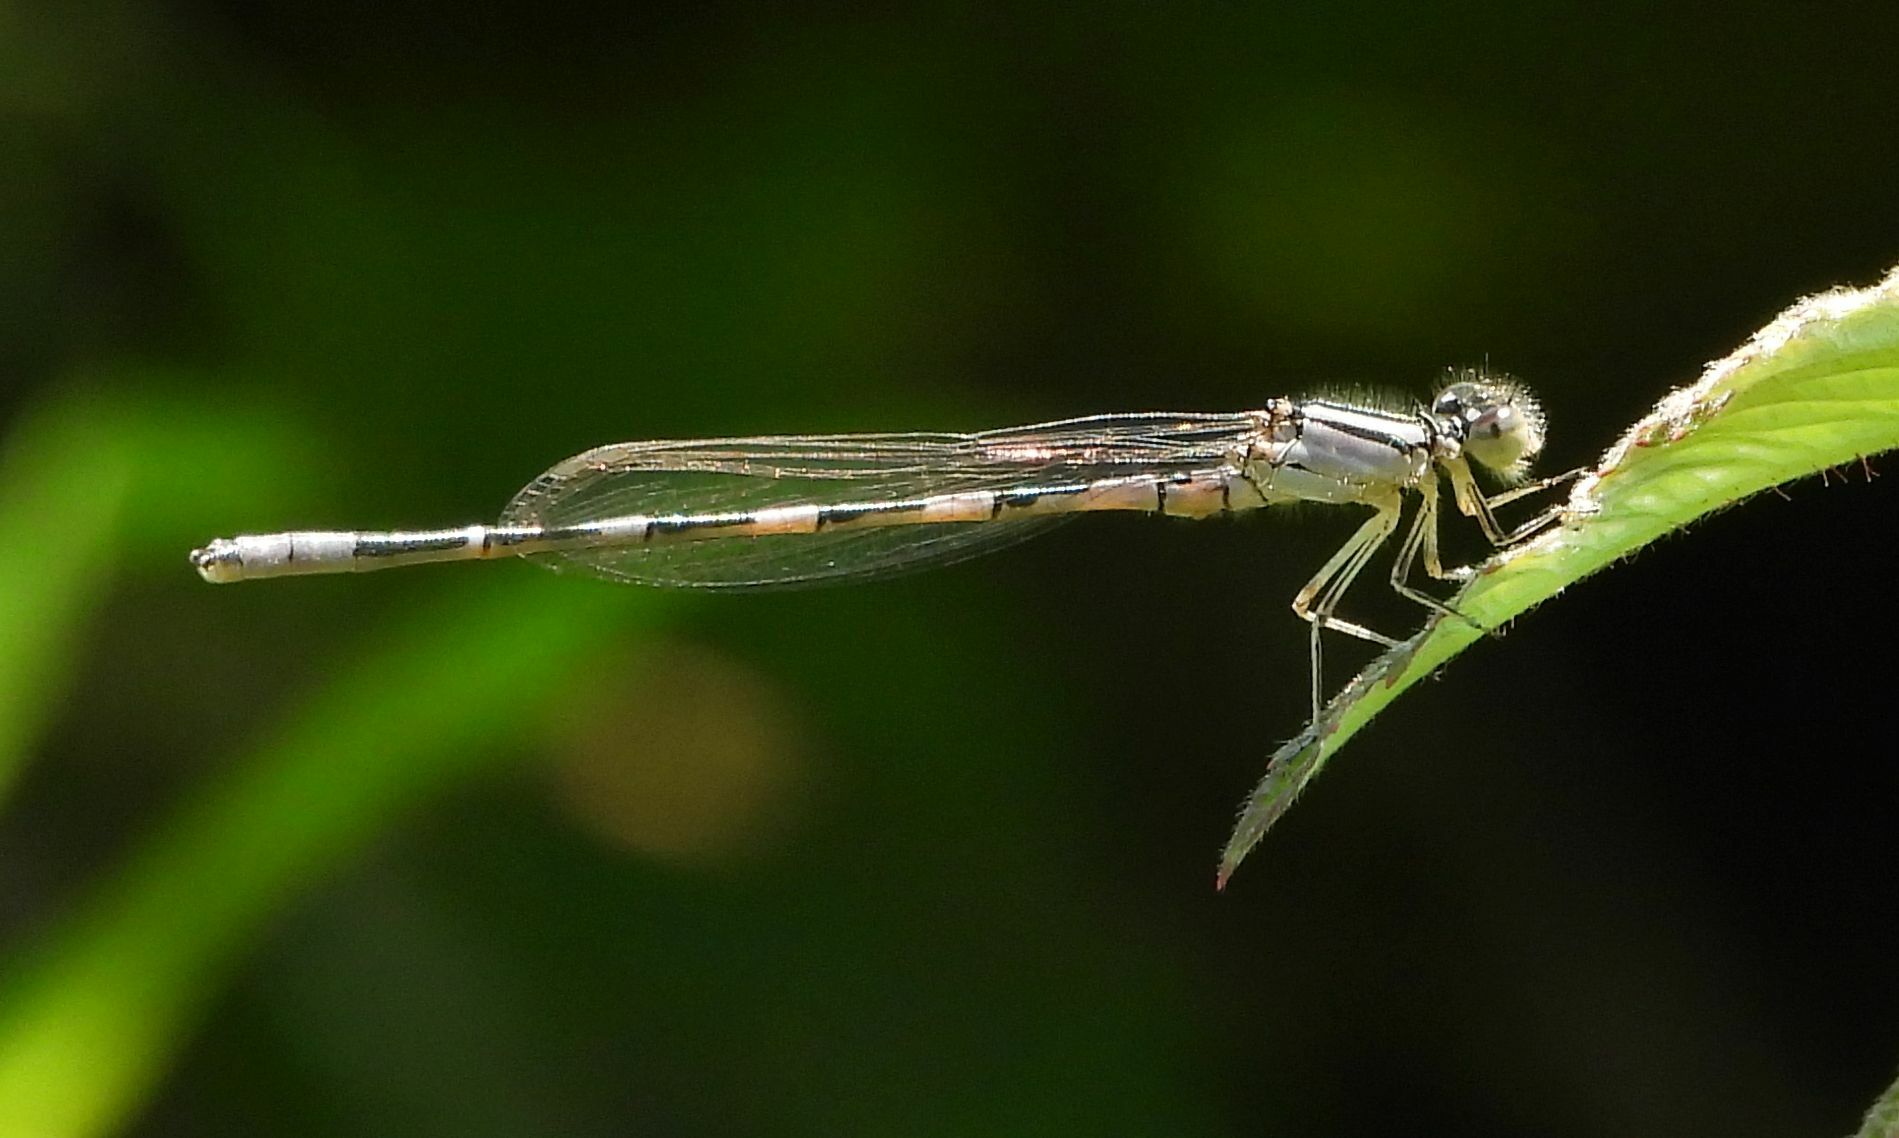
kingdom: Animalia
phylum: Arthropoda
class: Insecta
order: Odonata
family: Coenagrionidae
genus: Enallagma
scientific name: Enallagma carunculatum
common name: Tule bluet
